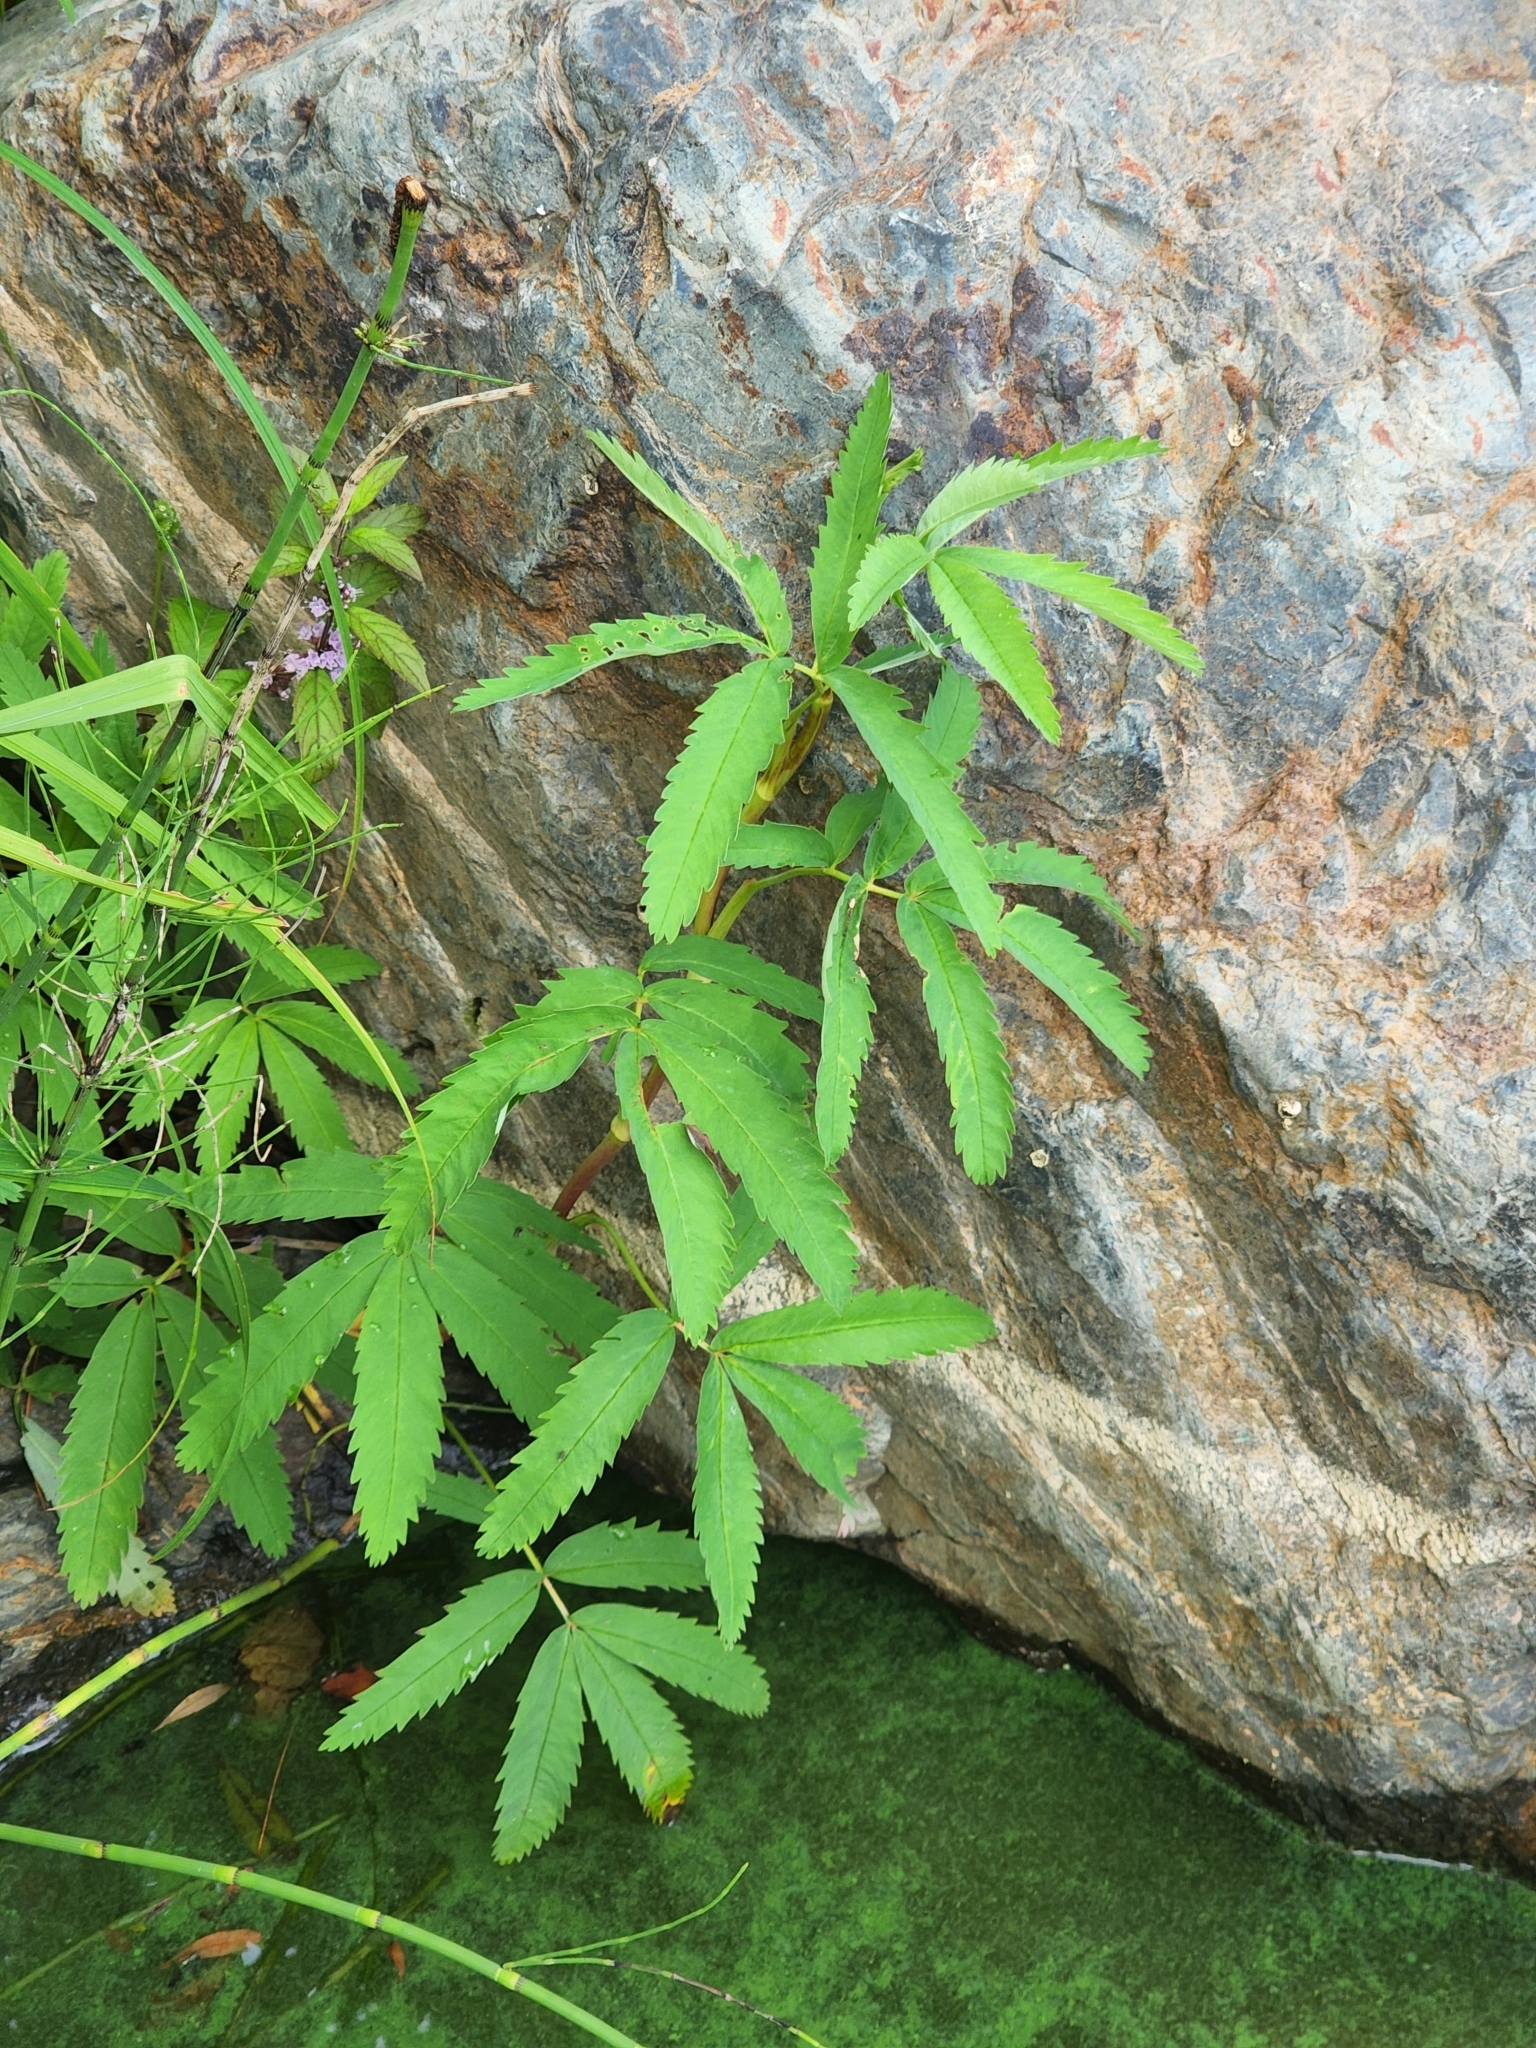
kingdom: Plantae
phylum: Tracheophyta
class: Magnoliopsida
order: Rosales
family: Rosaceae
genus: Comarum
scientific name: Comarum palustre
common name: Marsh cinquefoil
